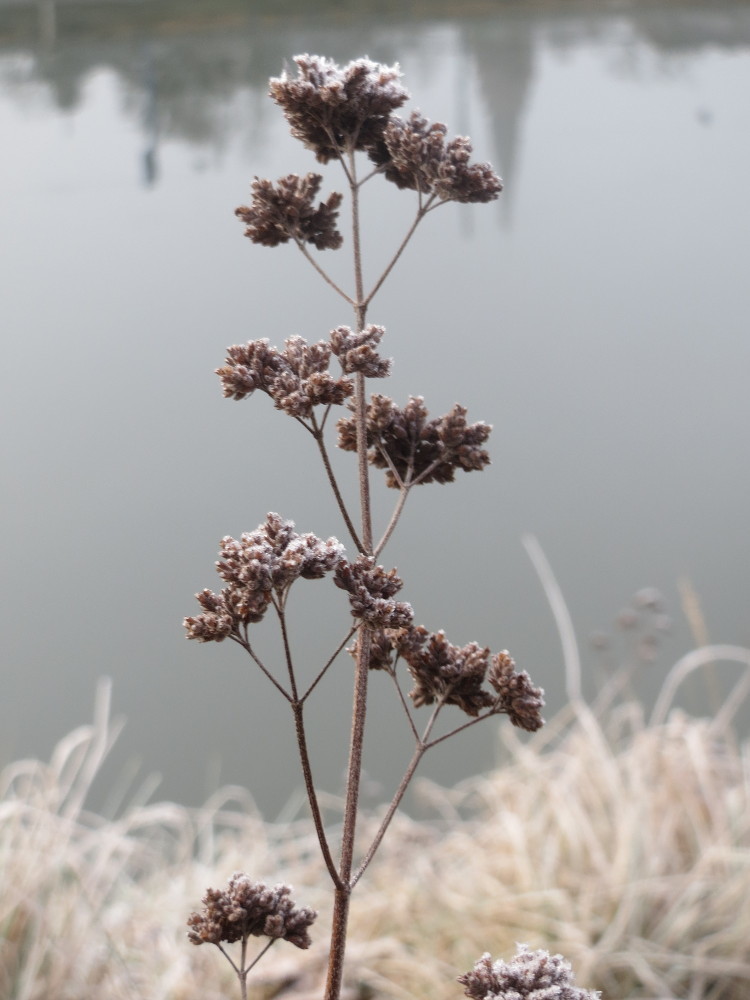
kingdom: Plantae
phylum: Tracheophyta
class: Magnoliopsida
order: Lamiales
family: Lamiaceae
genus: Origanum
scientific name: Origanum vulgare
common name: Wild marjoram
